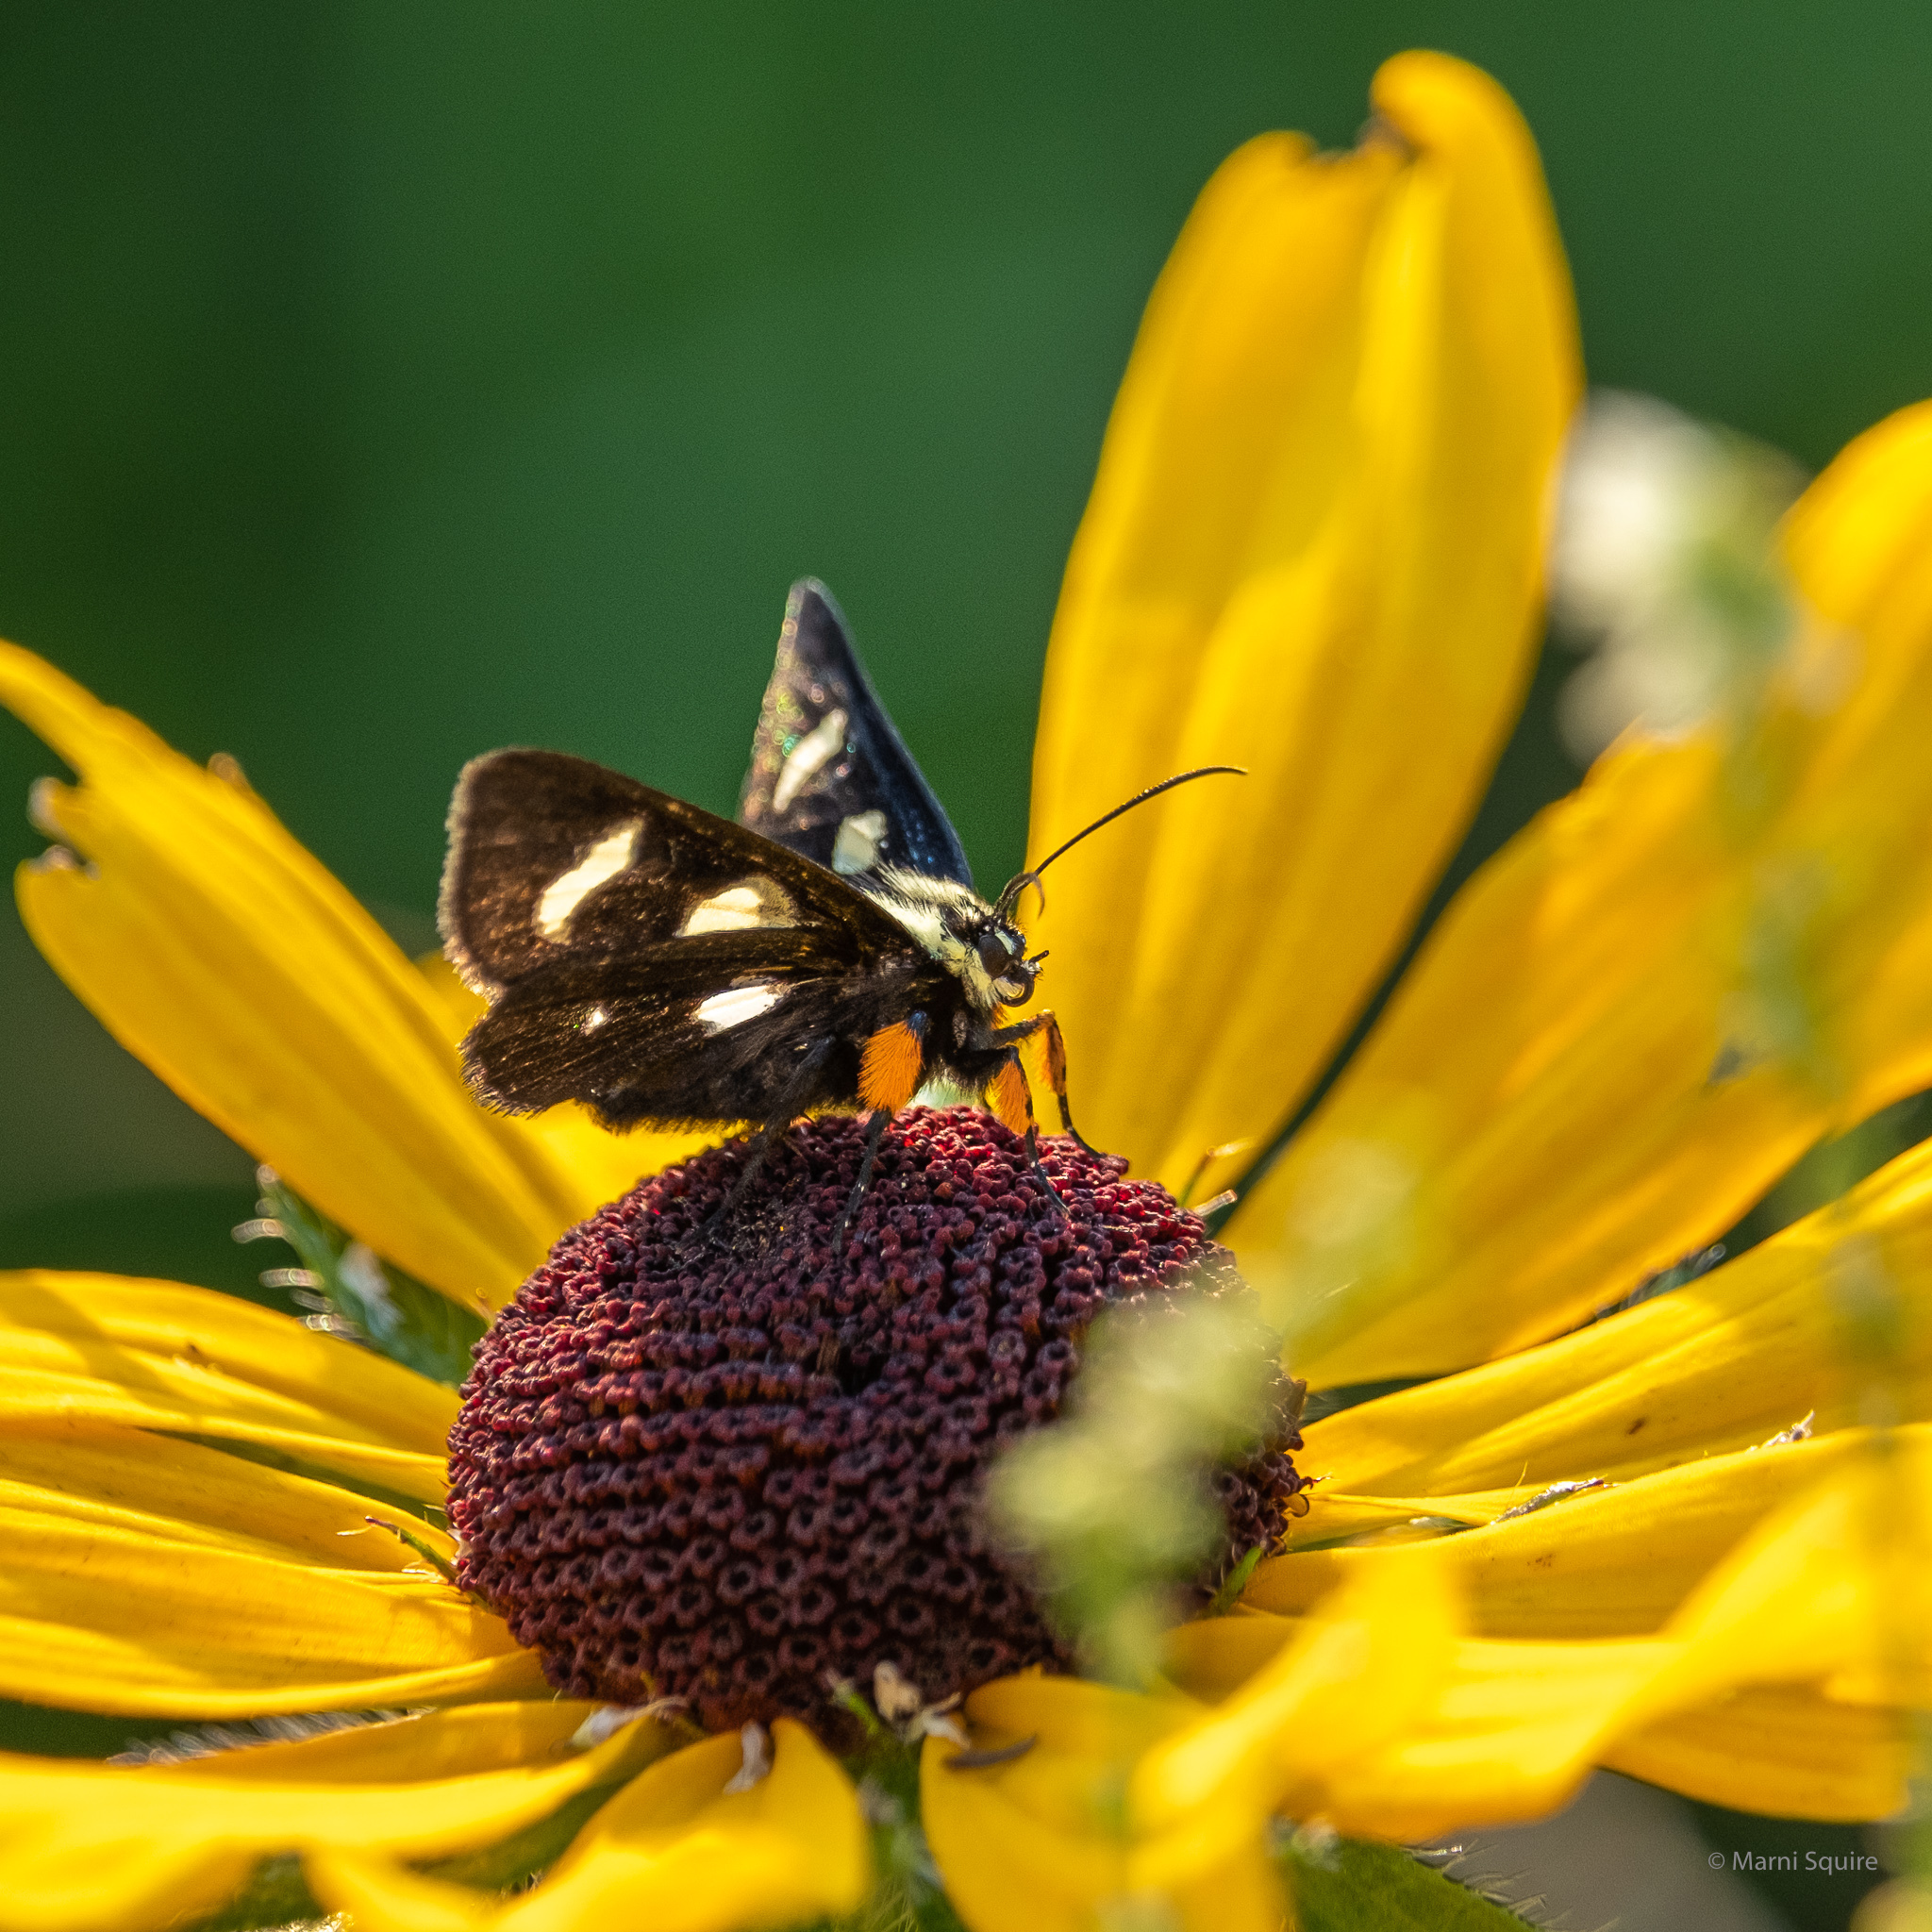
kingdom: Animalia
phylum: Arthropoda
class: Insecta
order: Lepidoptera
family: Noctuidae
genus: Alypia
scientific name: Alypia octomaculata
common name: Eight-spotted forester
